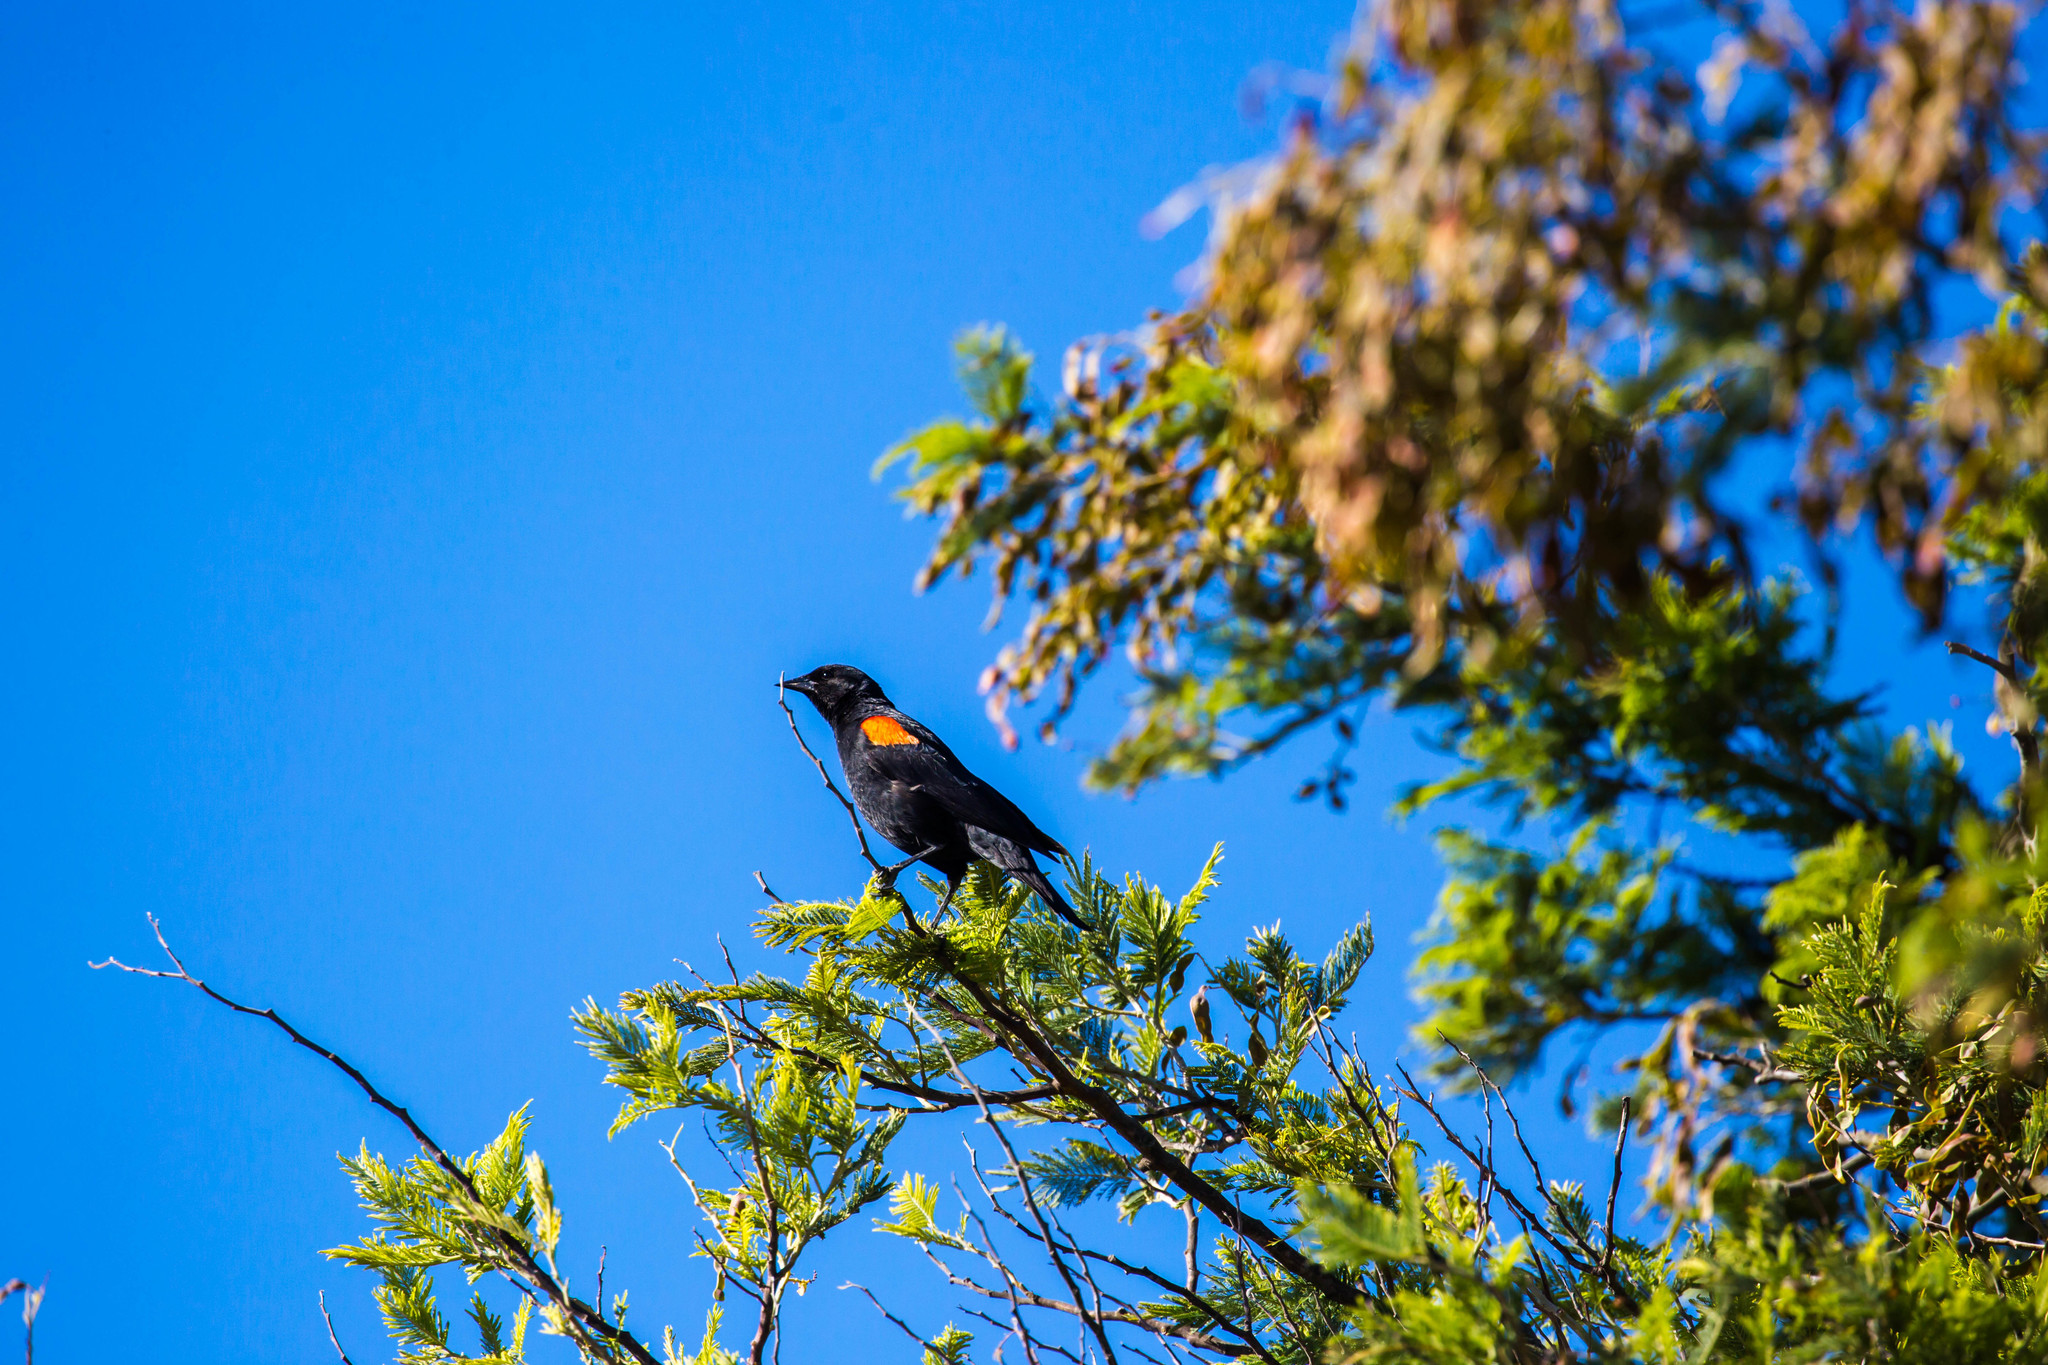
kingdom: Animalia
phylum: Chordata
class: Aves
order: Passeriformes
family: Icteridae
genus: Agelaius
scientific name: Agelaius phoeniceus
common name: Red-winged blackbird
